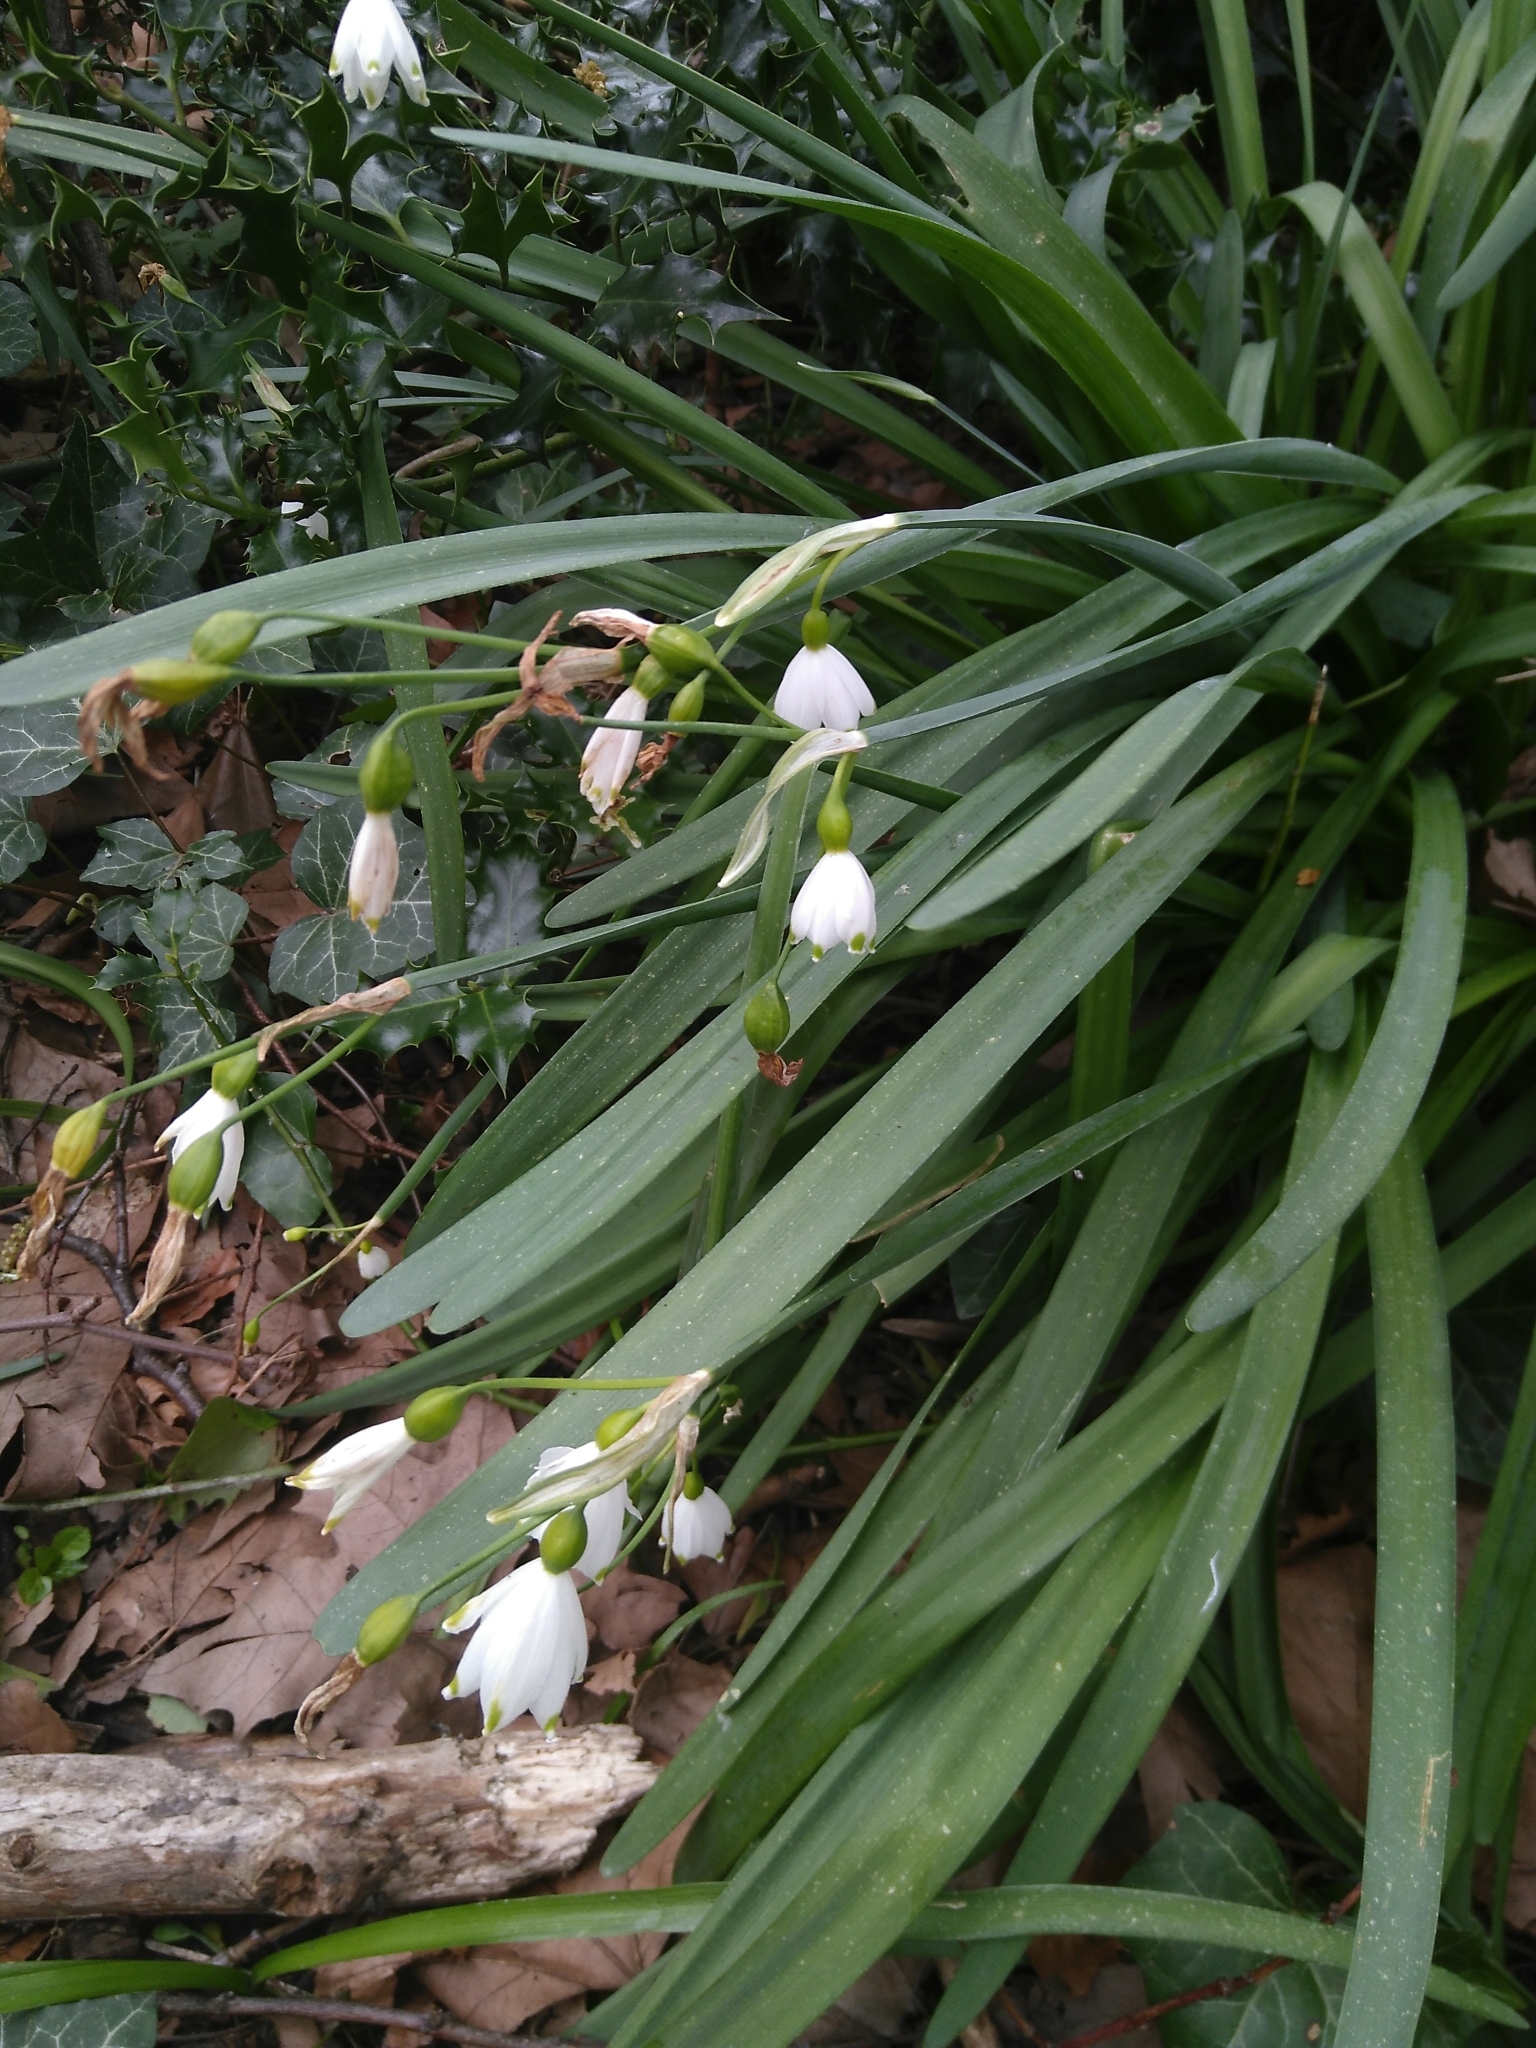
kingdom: Plantae
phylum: Tracheophyta
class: Liliopsida
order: Asparagales
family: Amaryllidaceae
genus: Leucojum
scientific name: Leucojum aestivum
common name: Summer snowflake
